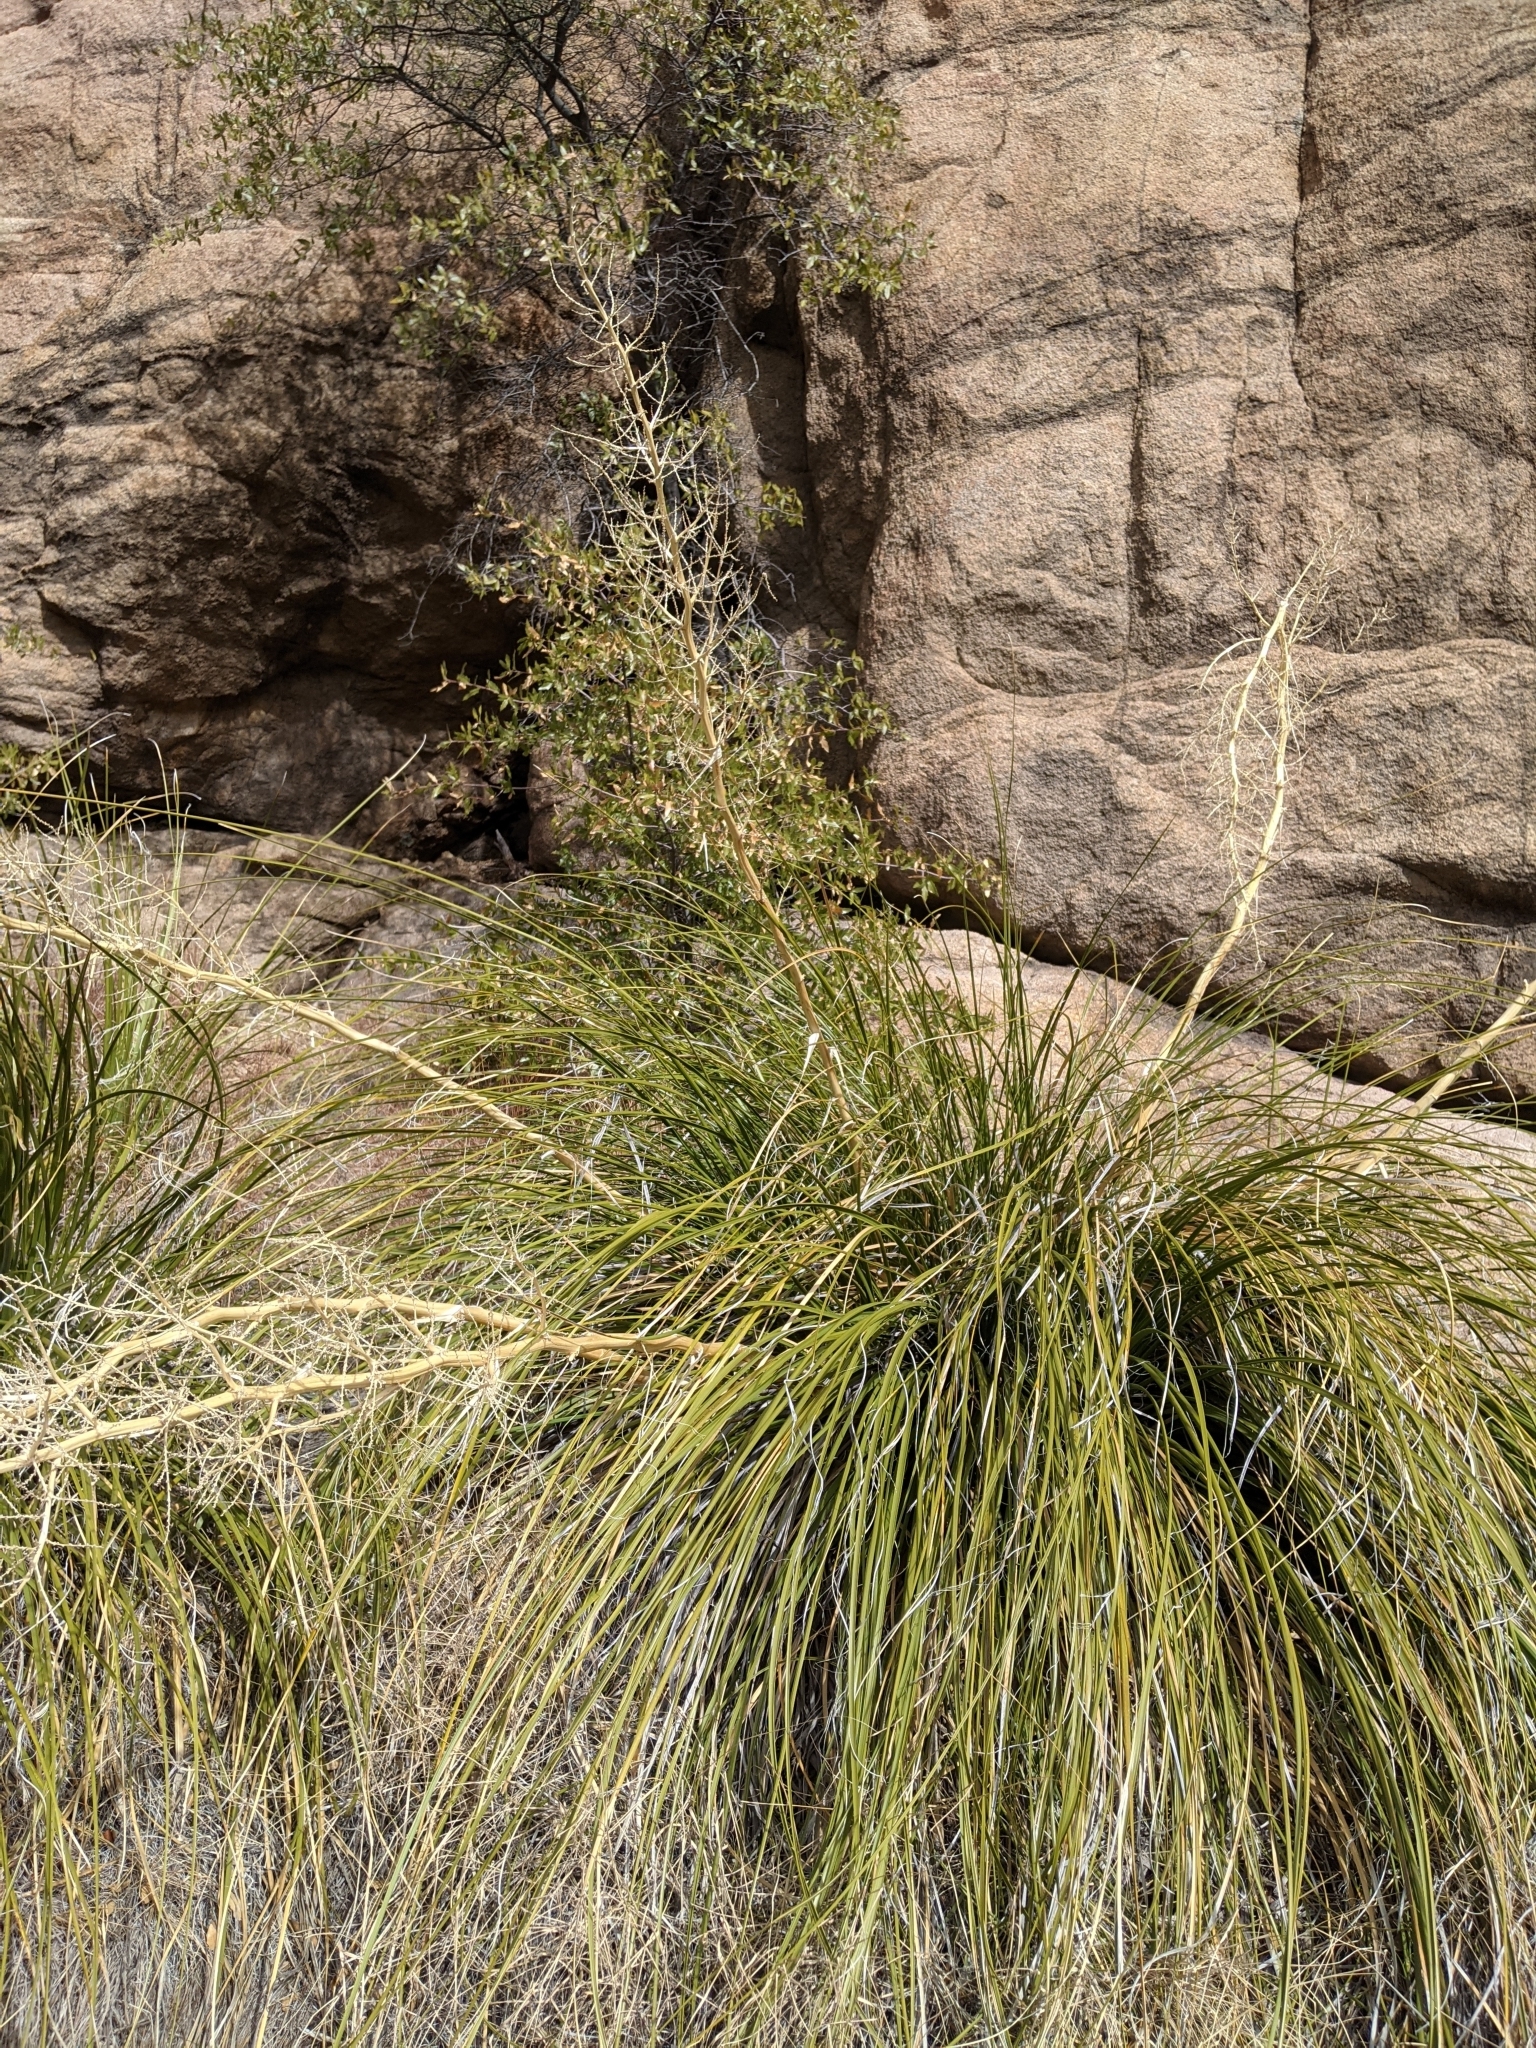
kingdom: Plantae
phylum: Tracheophyta
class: Liliopsida
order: Asparagales
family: Asparagaceae
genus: Nolina
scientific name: Nolina microcarpa
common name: Bear-grass
